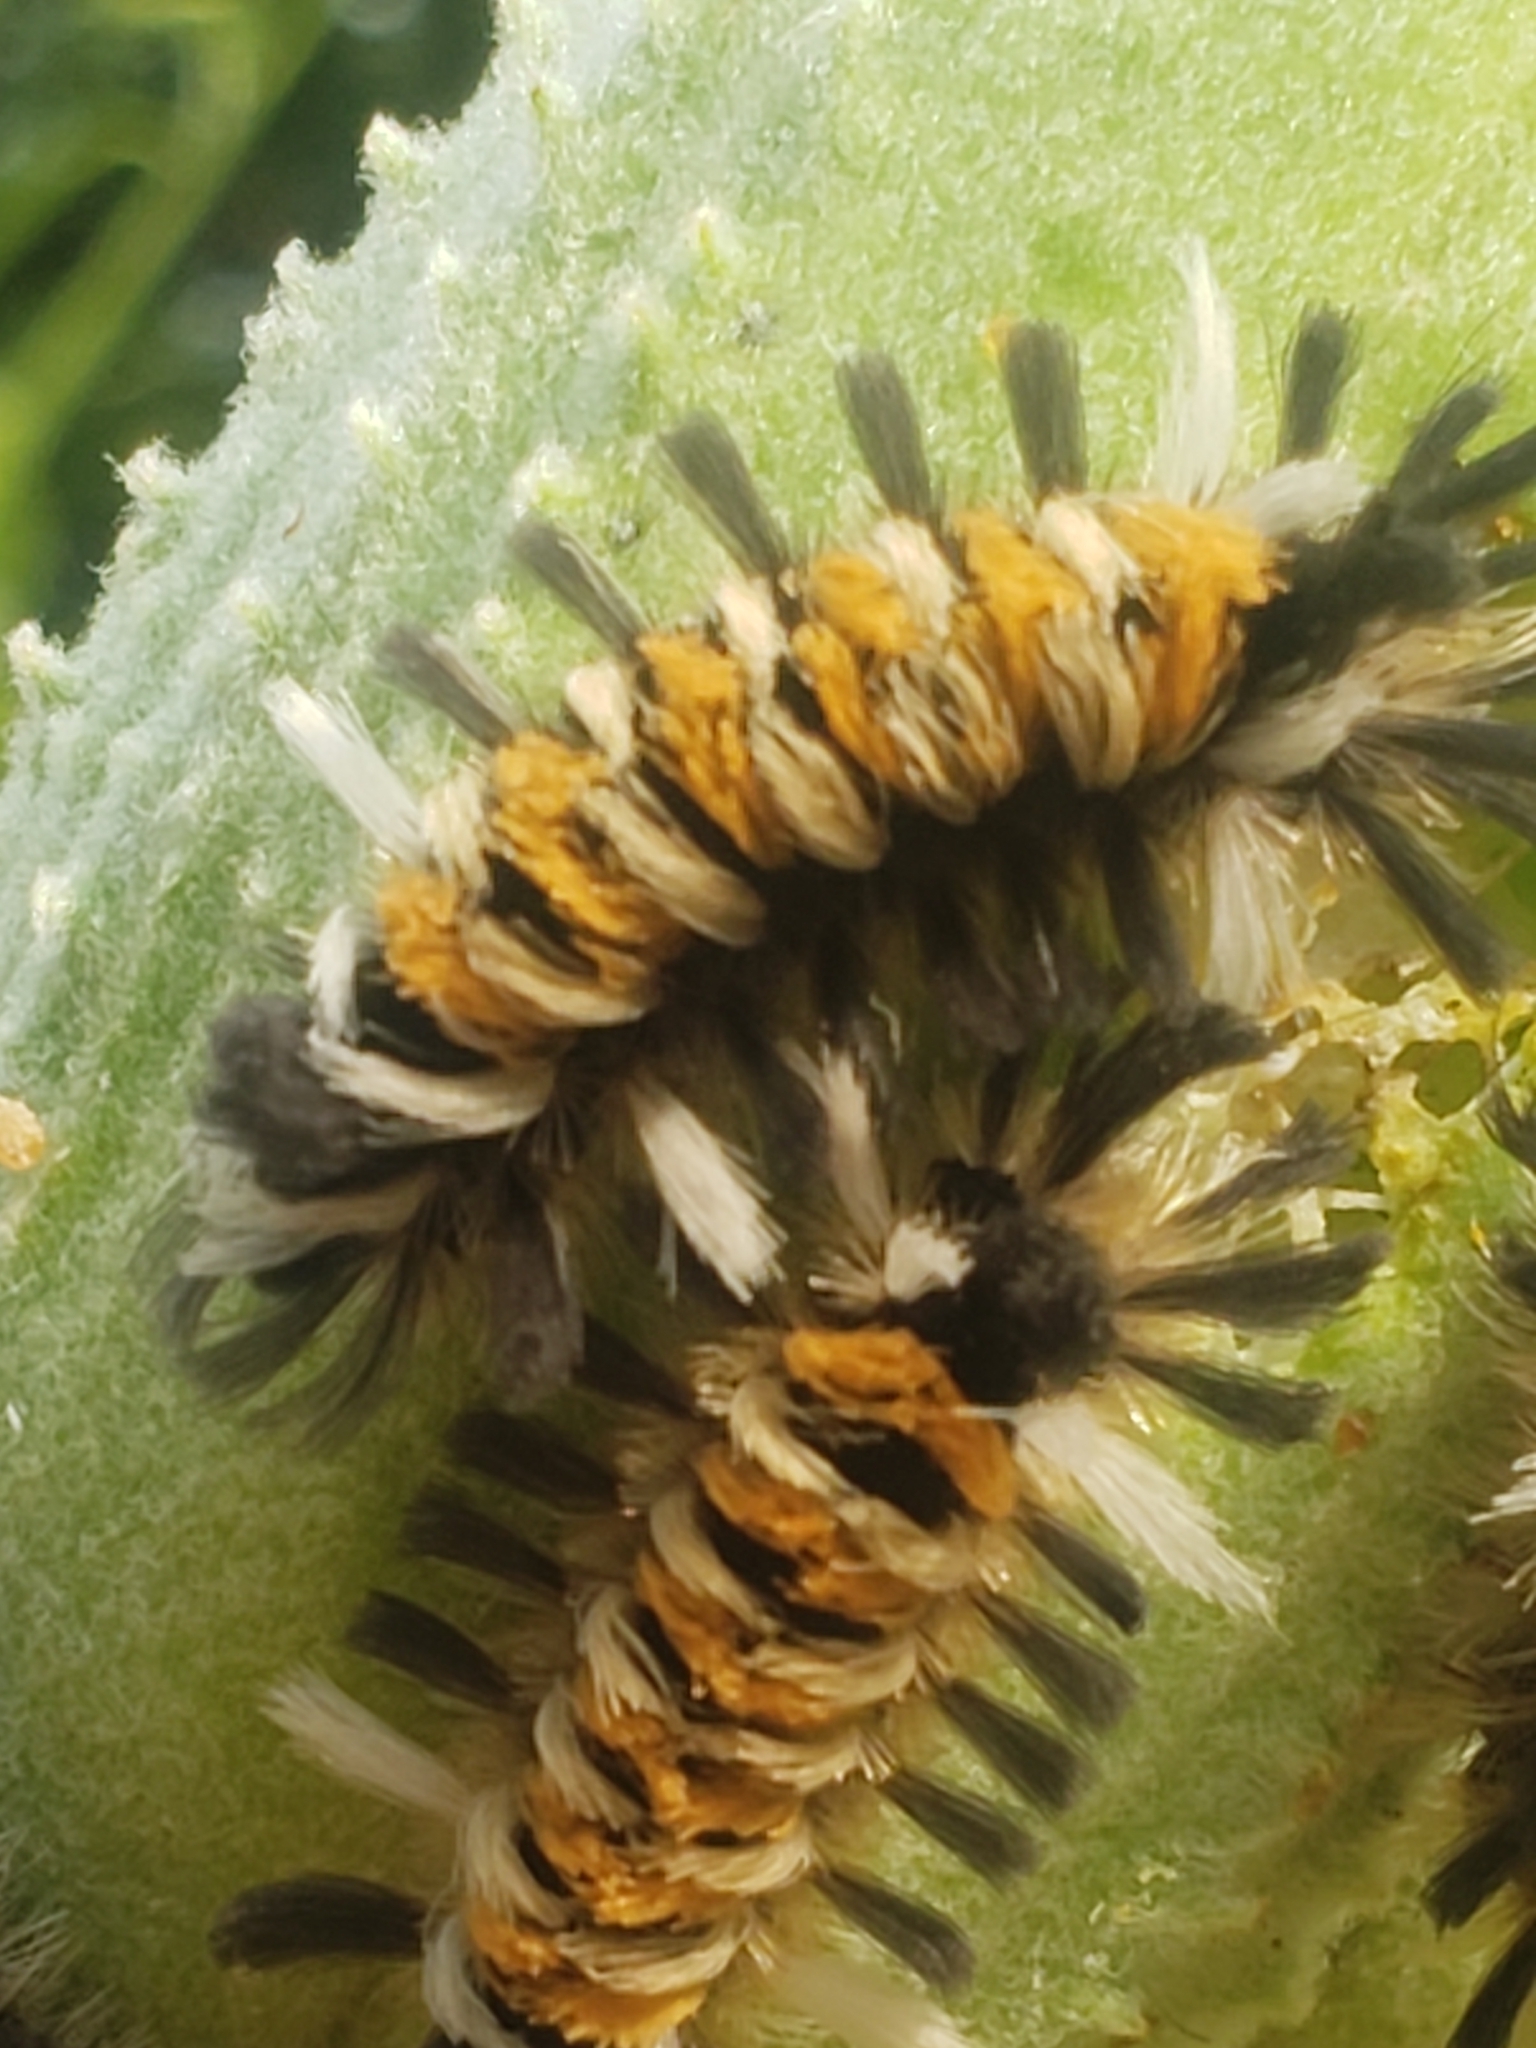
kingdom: Animalia
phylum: Arthropoda
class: Insecta
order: Lepidoptera
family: Erebidae
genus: Euchaetes
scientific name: Euchaetes egle
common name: Milkweed tussock moth
